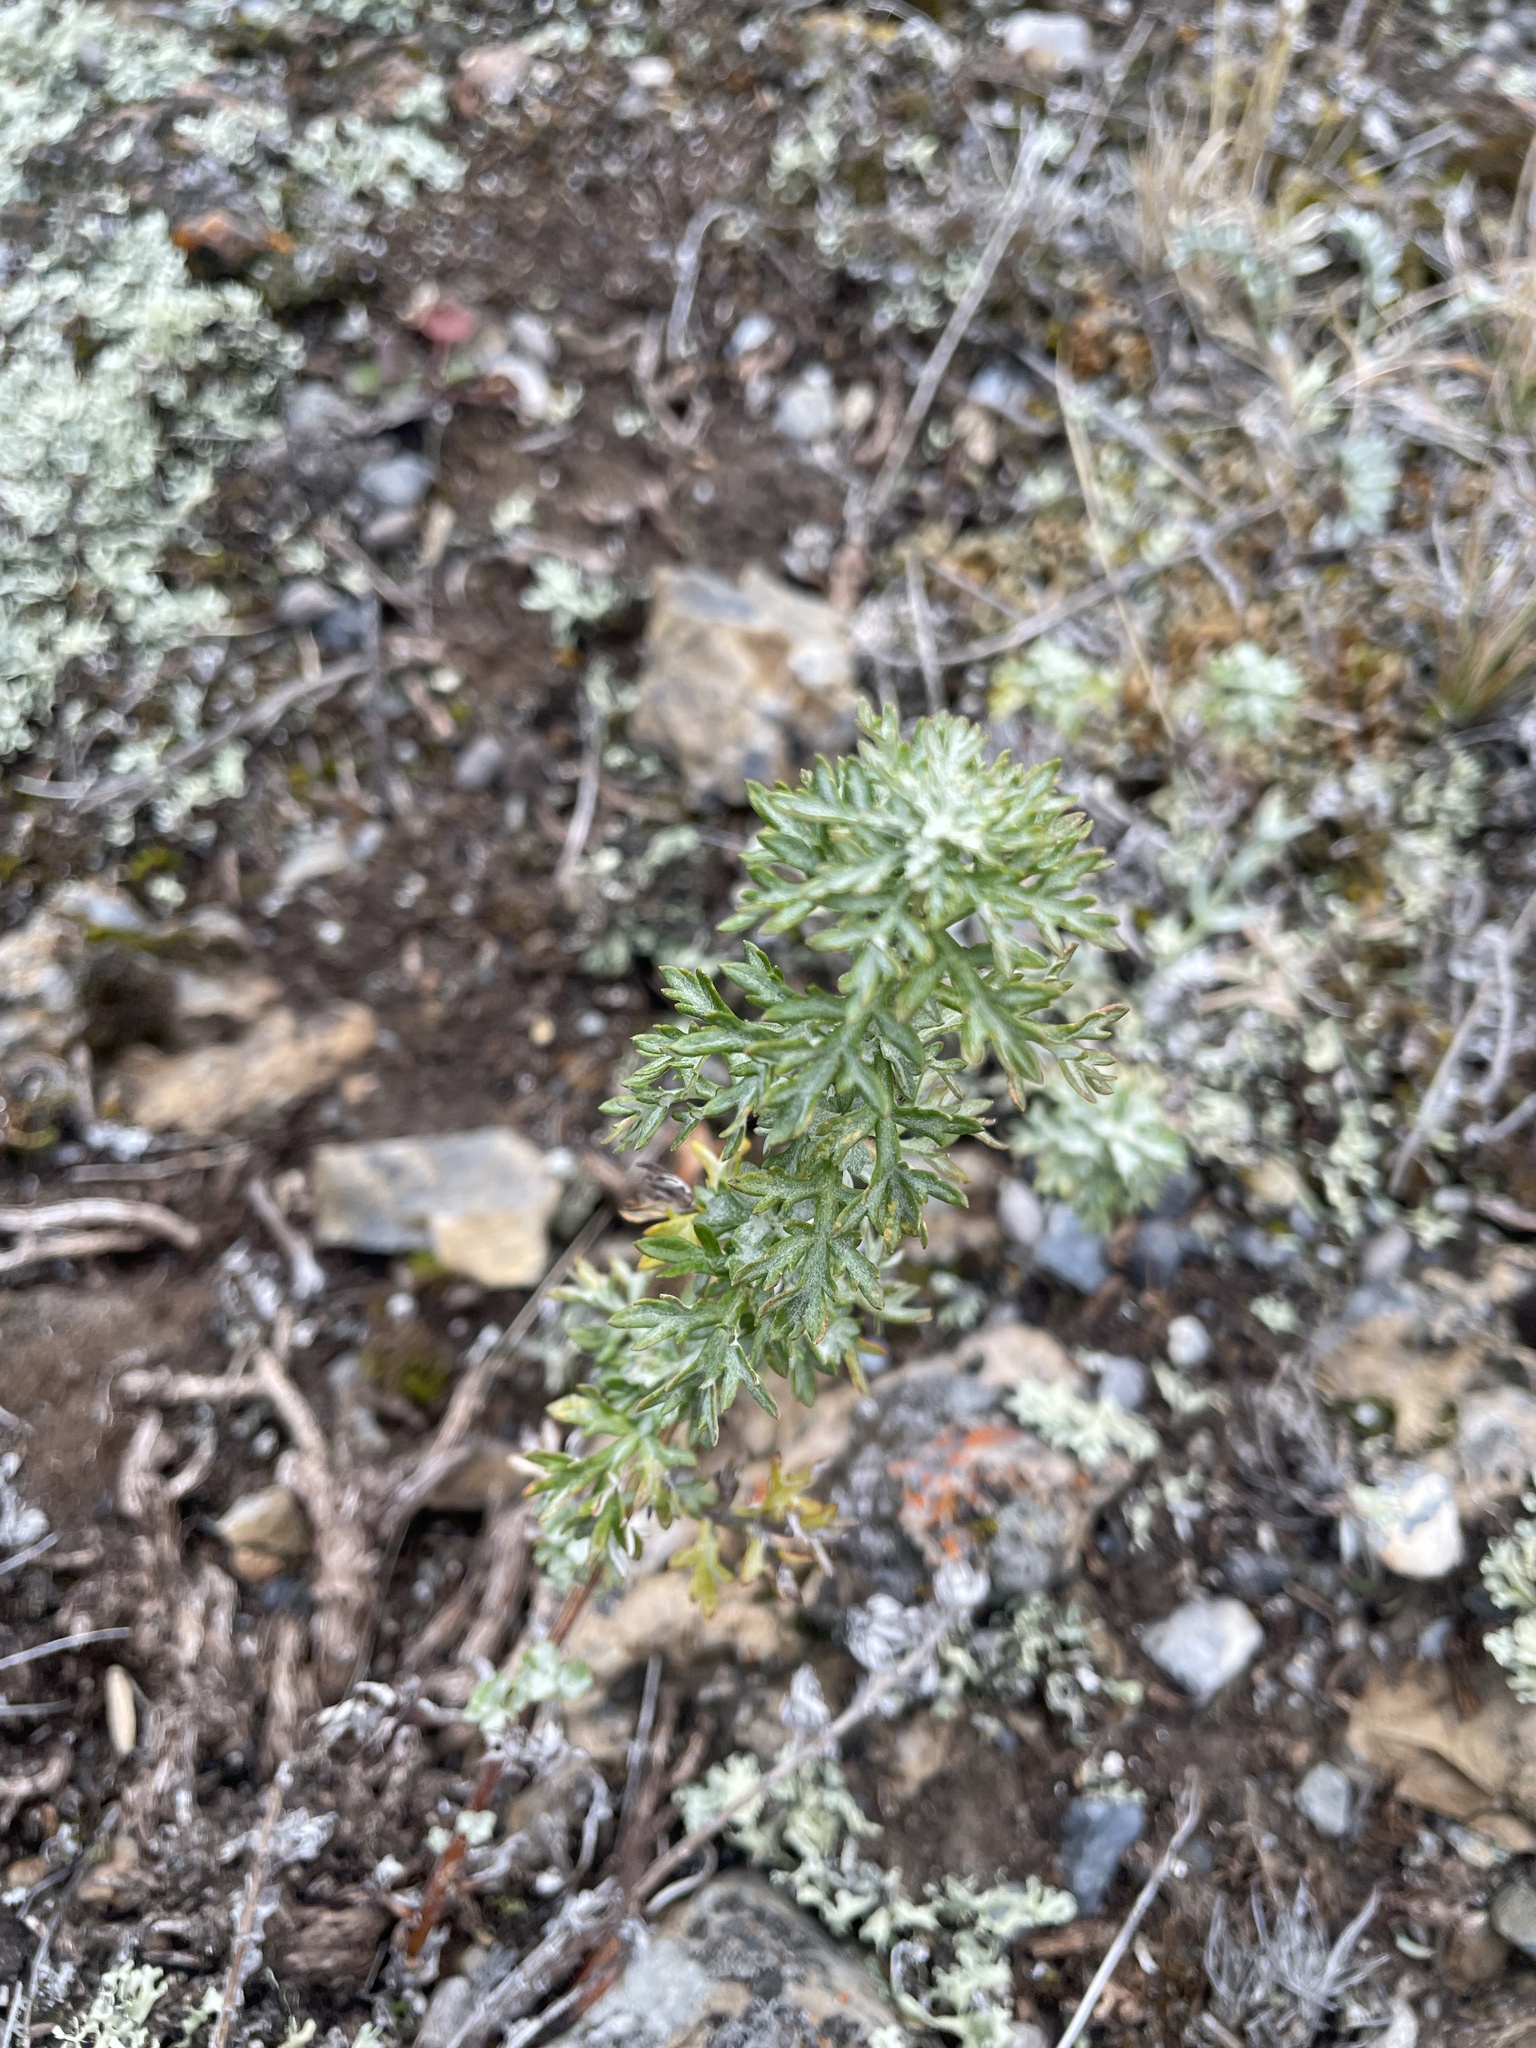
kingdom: Plantae
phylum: Tracheophyta
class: Magnoliopsida
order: Asterales
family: Asteraceae
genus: Artemisia
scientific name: Artemisia michauxiana
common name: Lemon sagewort
